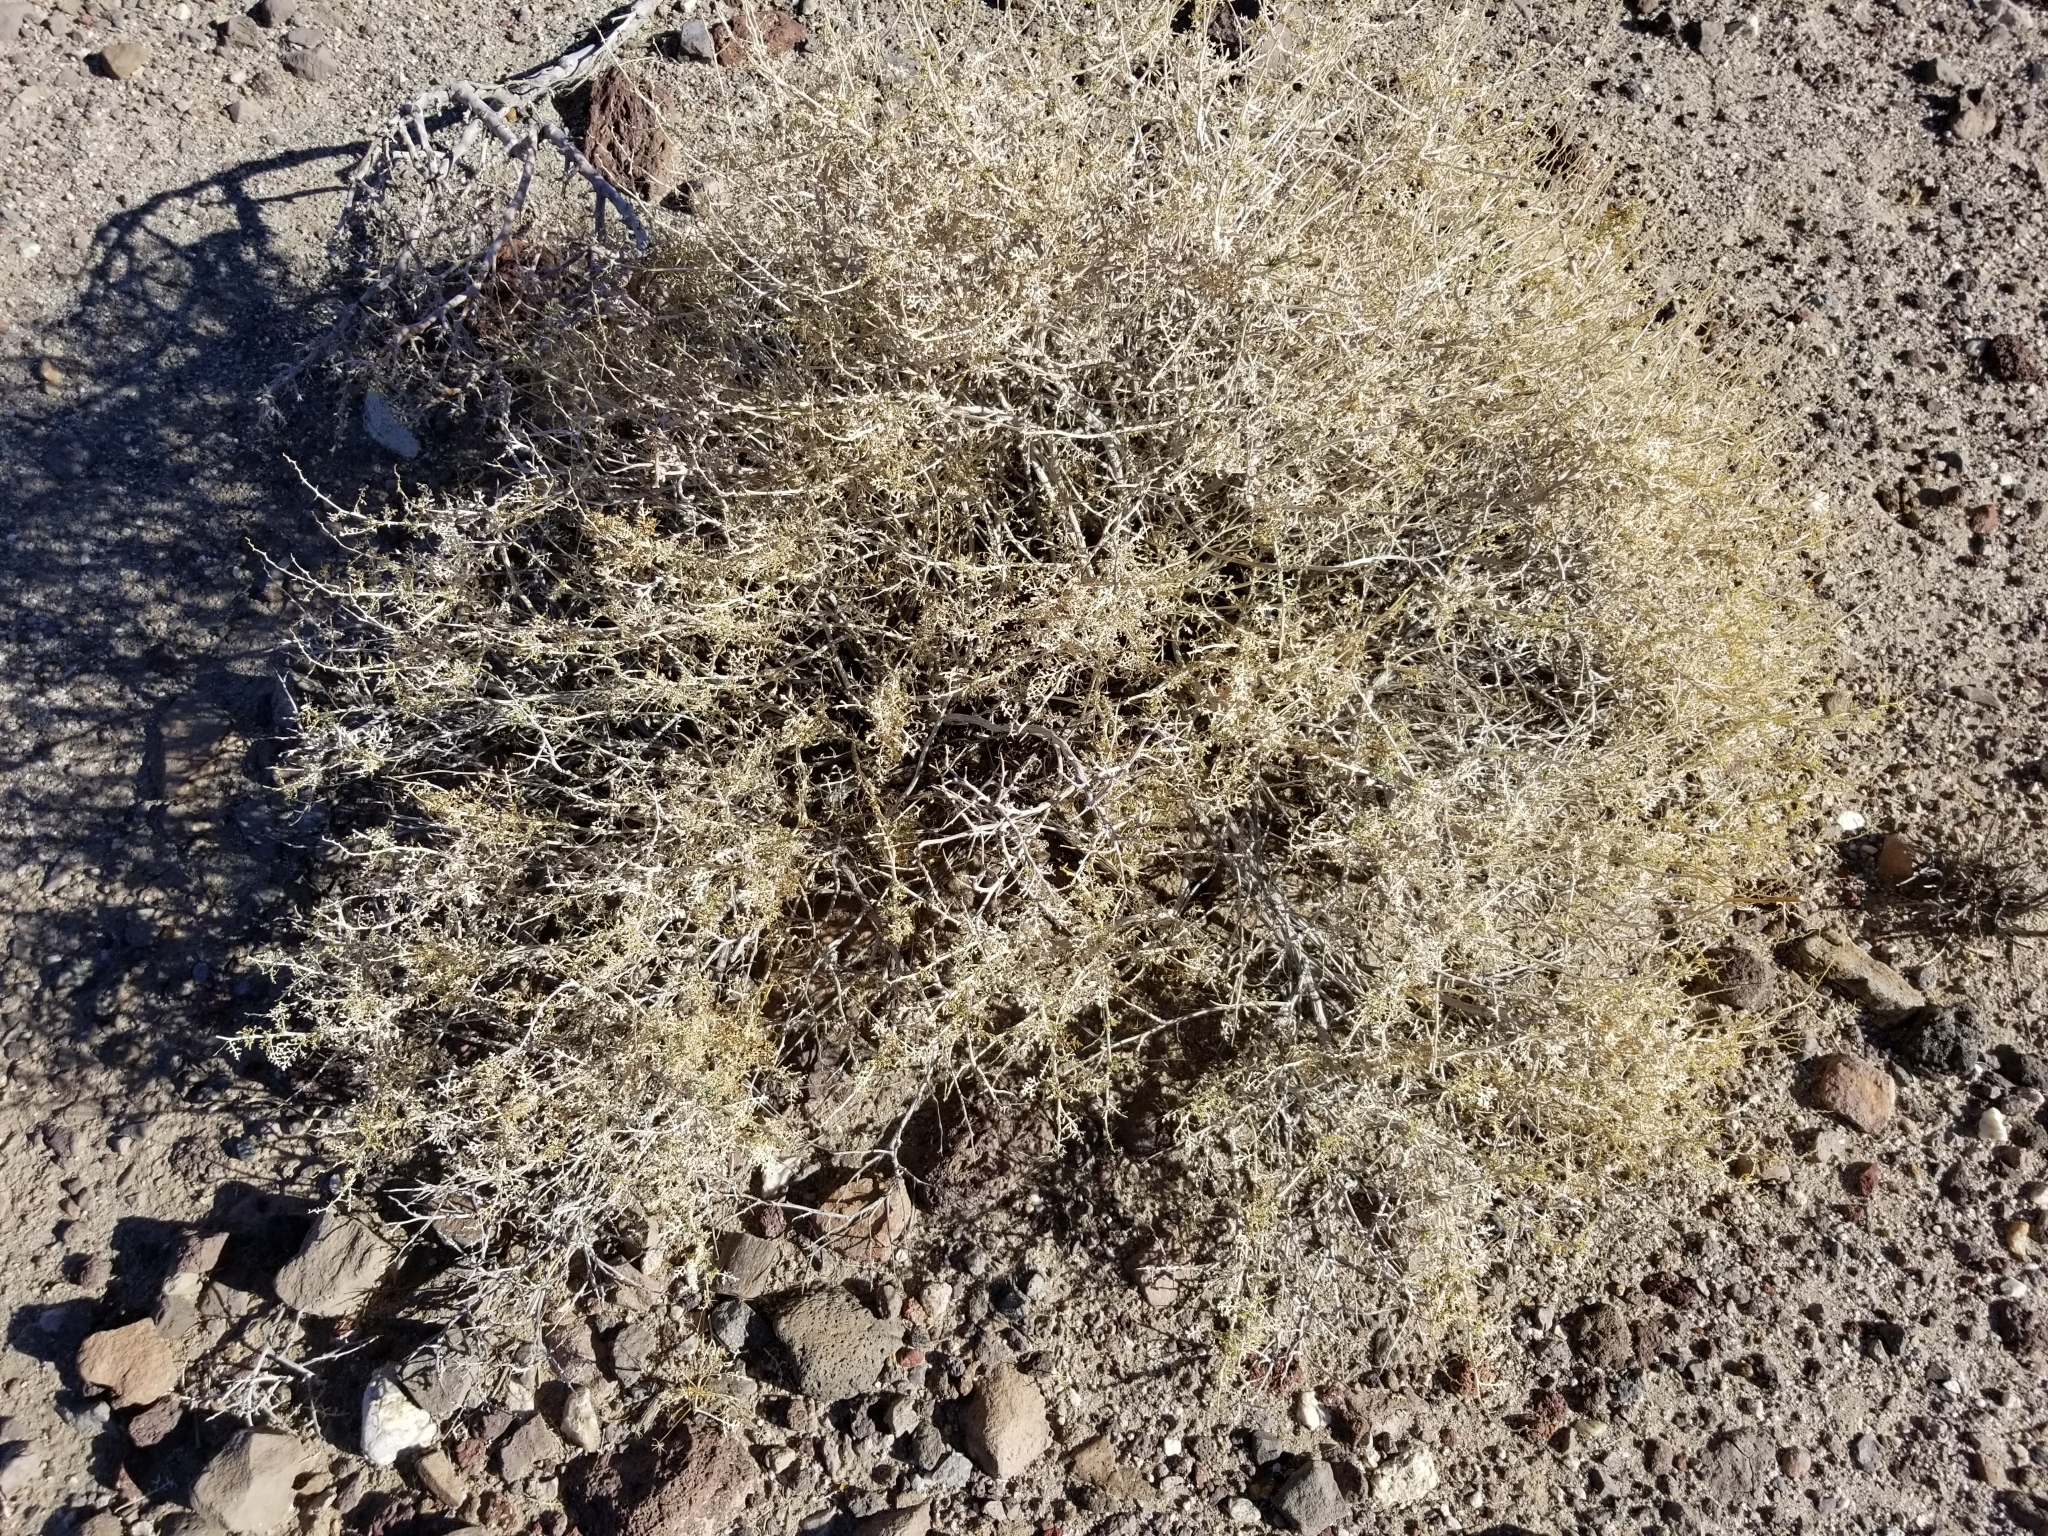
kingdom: Plantae
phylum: Tracheophyta
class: Magnoliopsida
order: Asterales
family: Asteraceae
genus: Ambrosia
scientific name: Ambrosia dumosa
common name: Bur-sage
